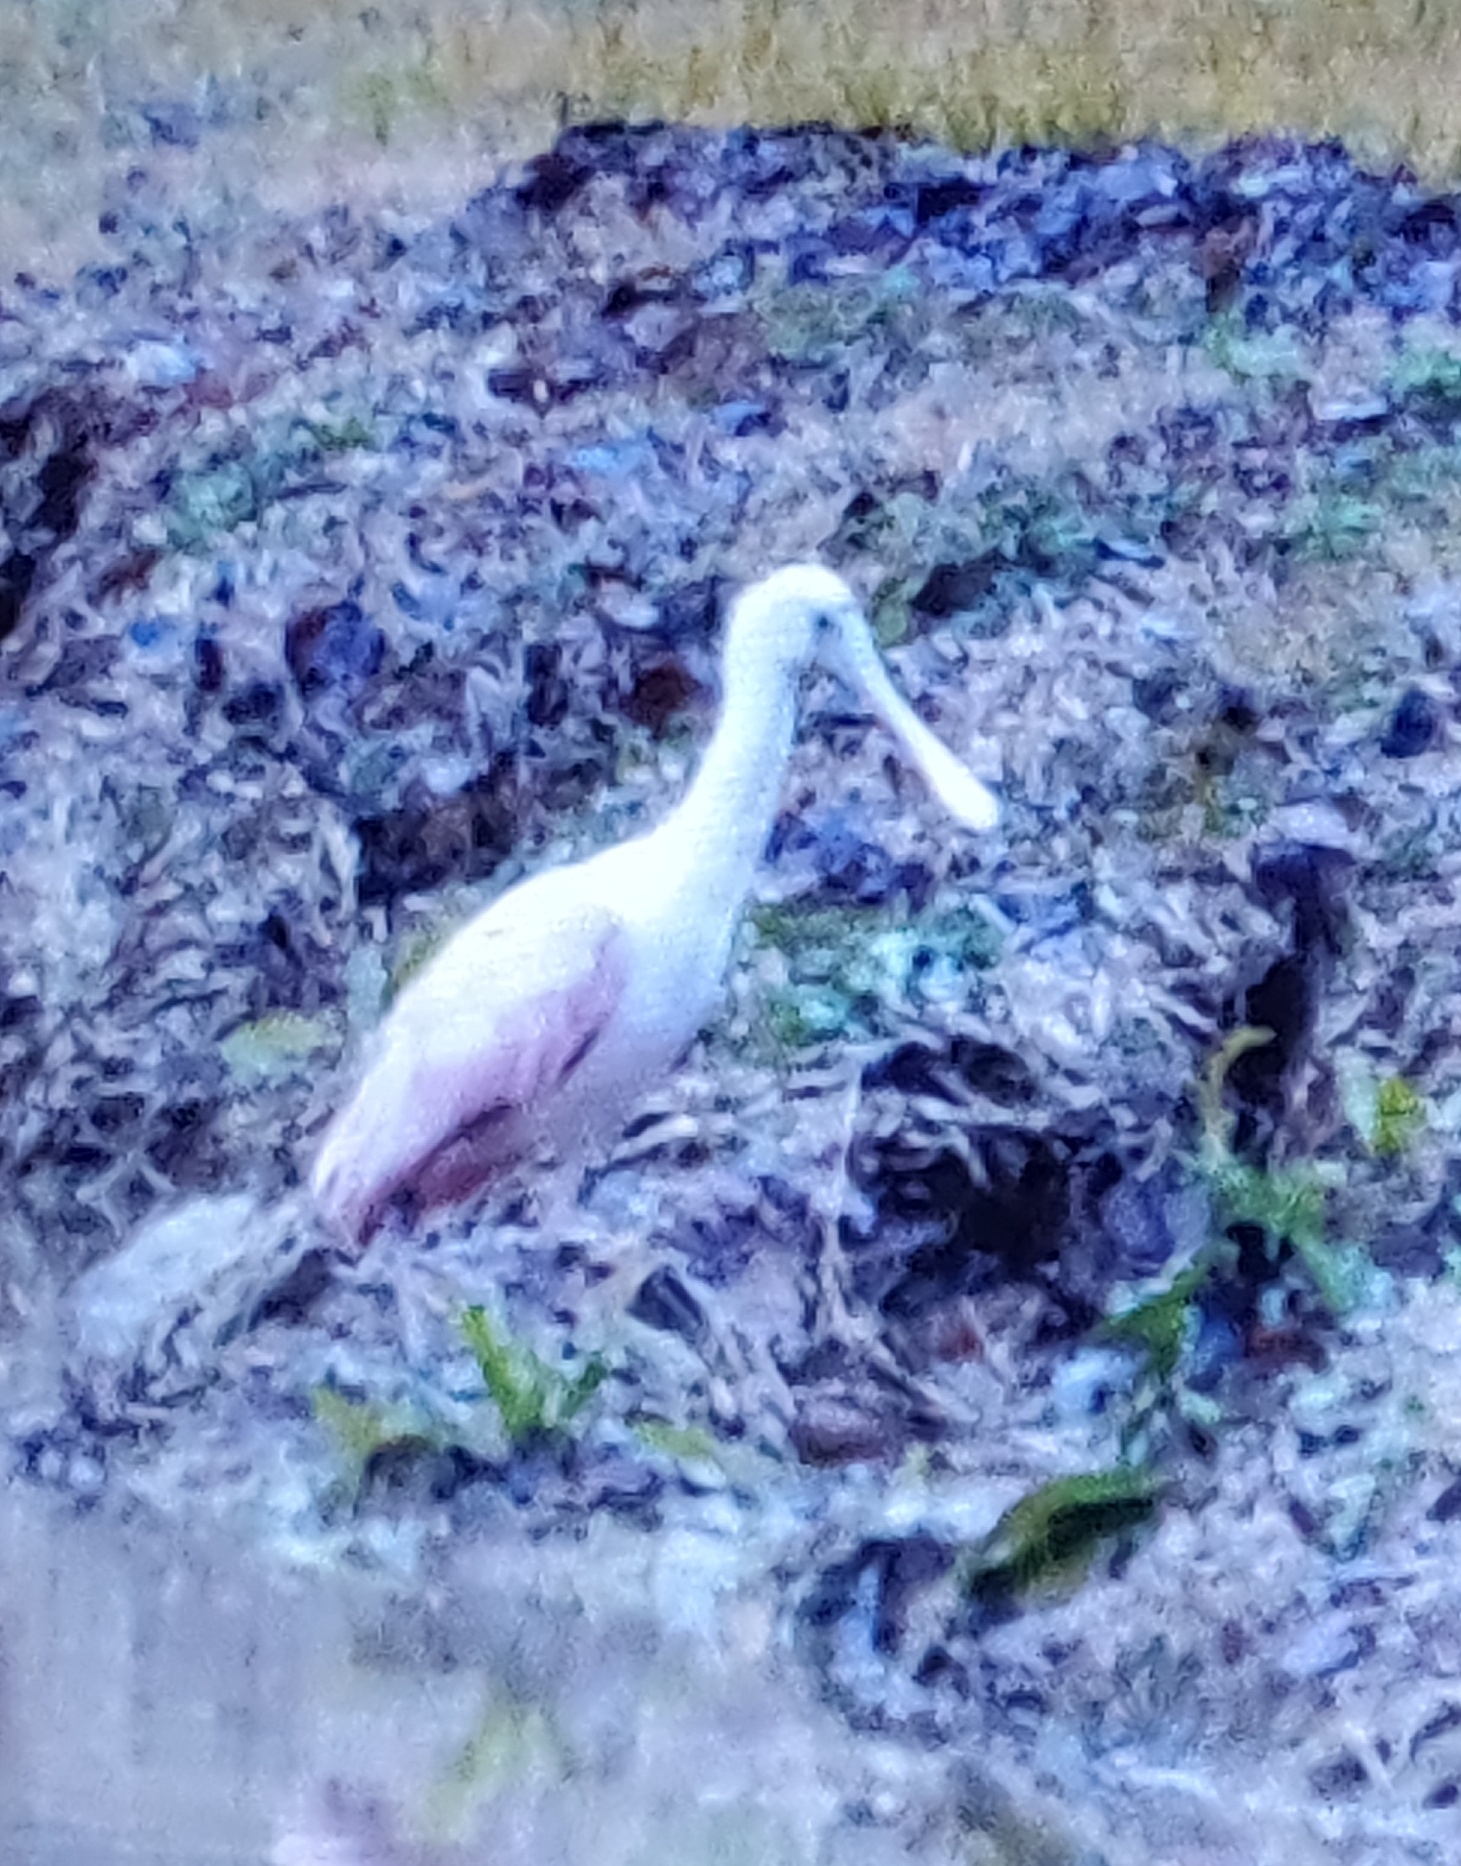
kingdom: Animalia
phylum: Chordata
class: Aves
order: Pelecaniformes
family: Threskiornithidae
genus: Platalea
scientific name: Platalea ajaja
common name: Roseate spoonbill
